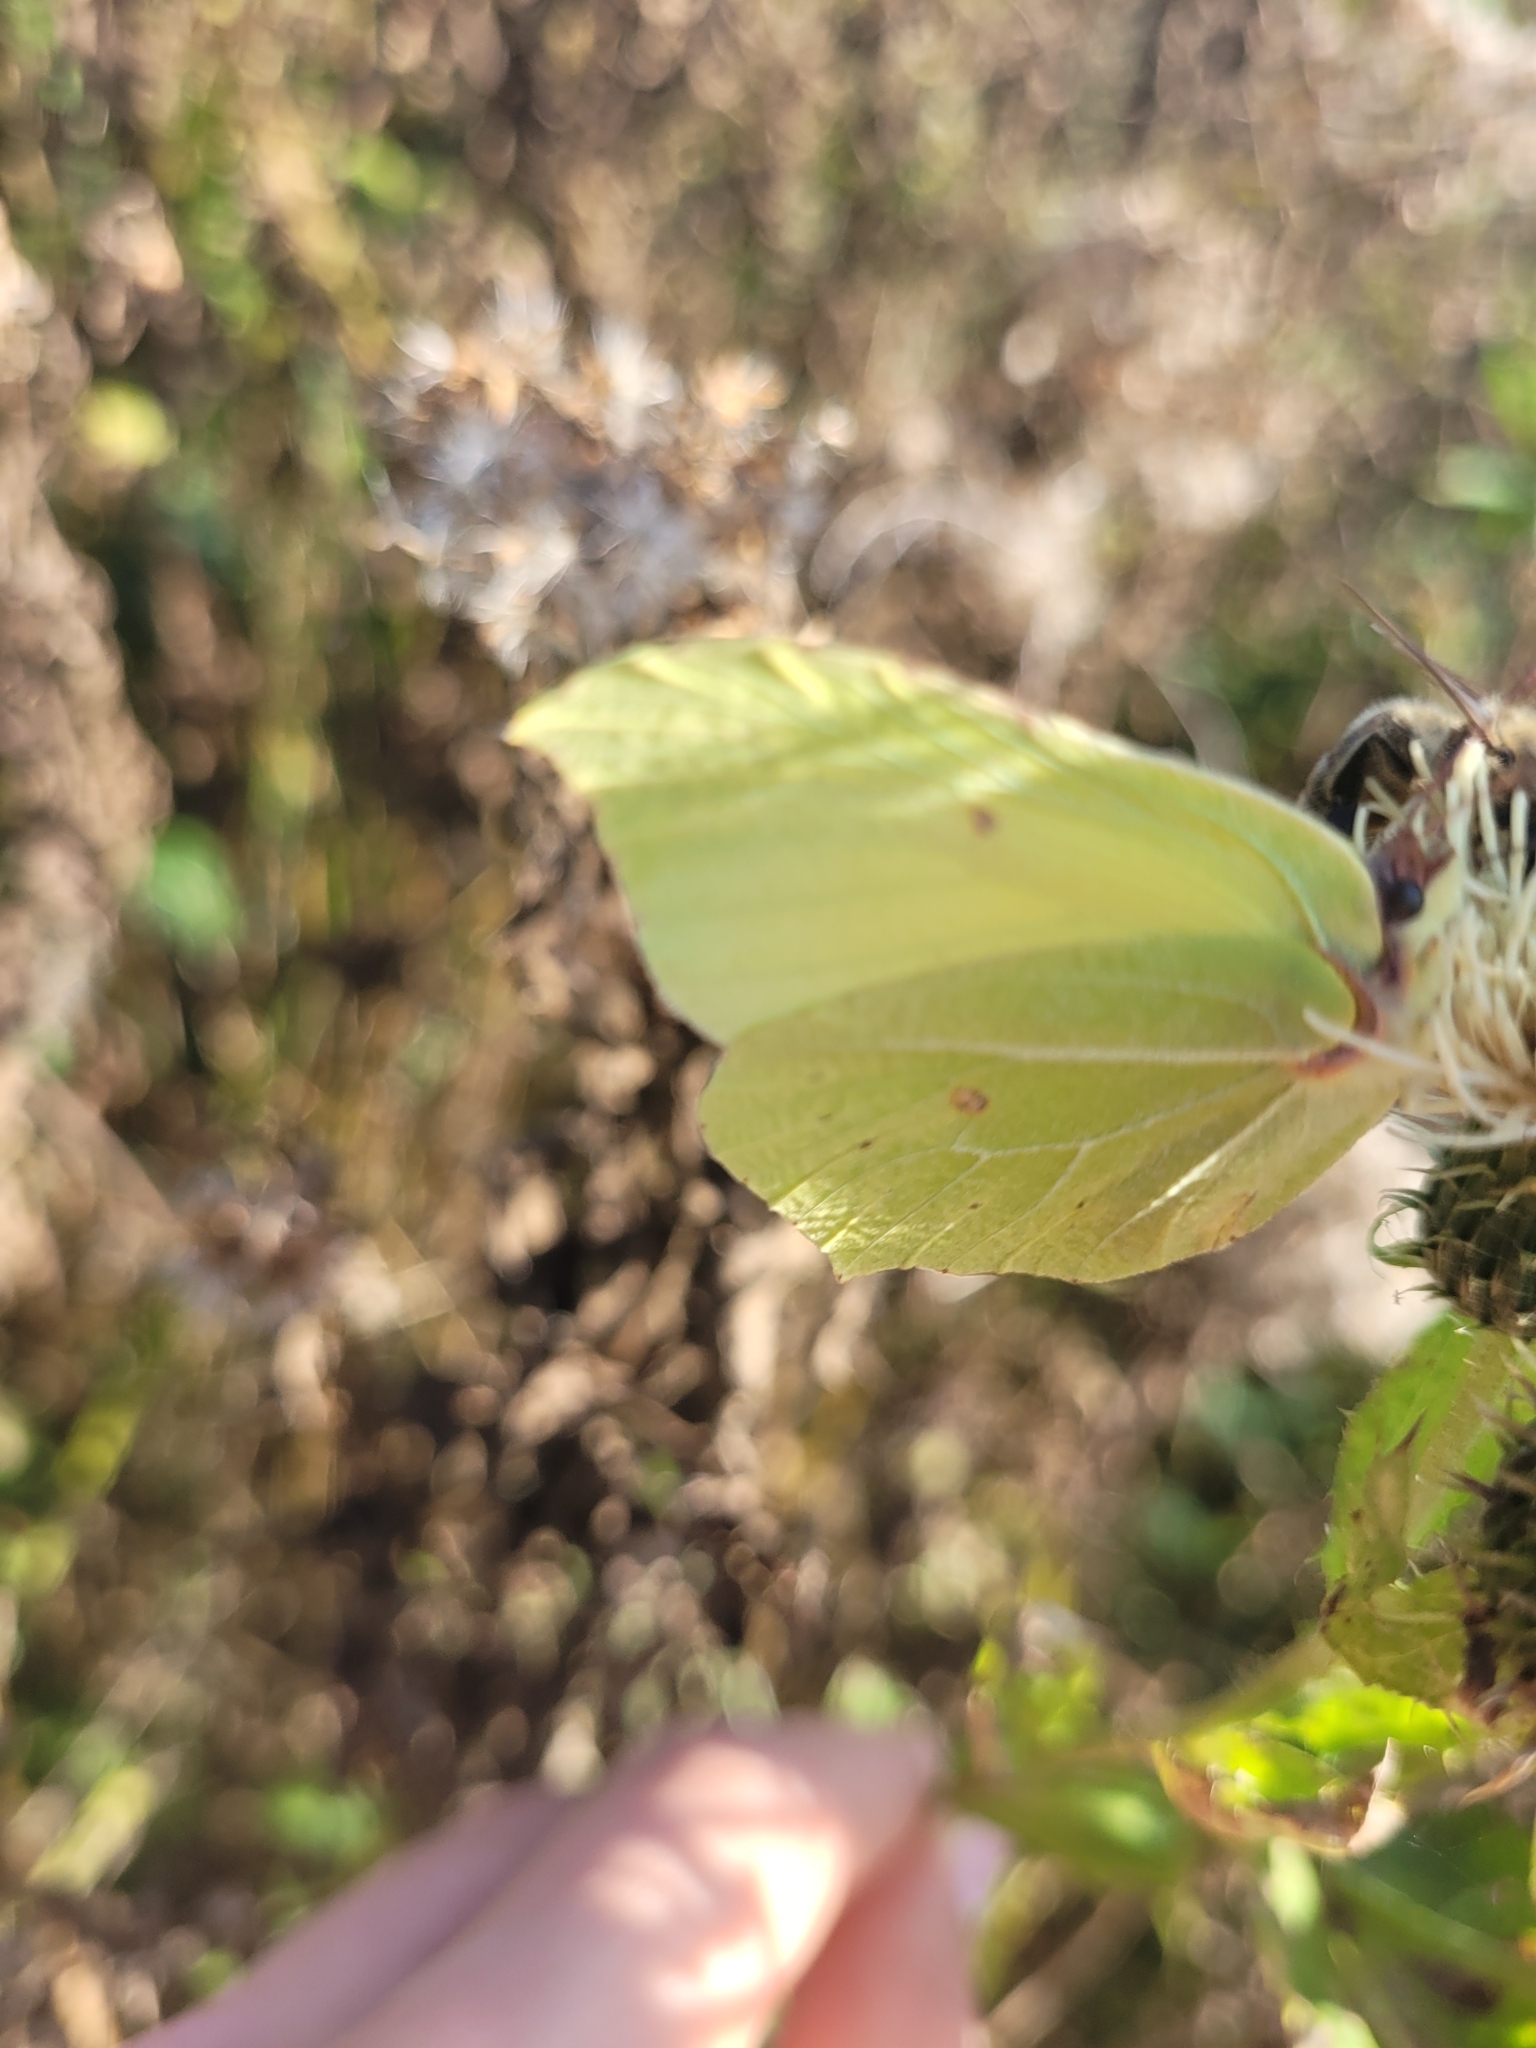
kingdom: Animalia
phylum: Arthropoda
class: Insecta
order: Lepidoptera
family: Pieridae
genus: Gonepteryx
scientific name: Gonepteryx rhamni
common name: Brimstone
